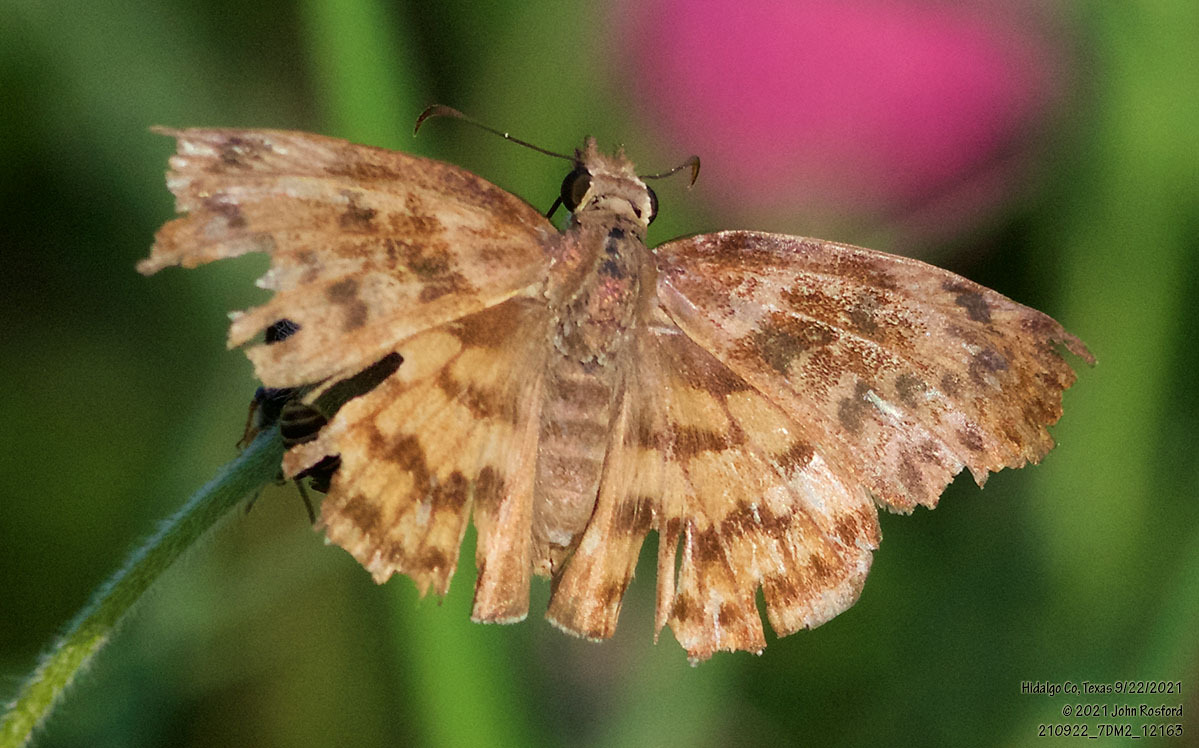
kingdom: Animalia
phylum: Arthropoda
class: Insecta
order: Lepidoptera
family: Hesperiidae
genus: Timochares
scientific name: Timochares ruptifasciata
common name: Brown-banded skipper
